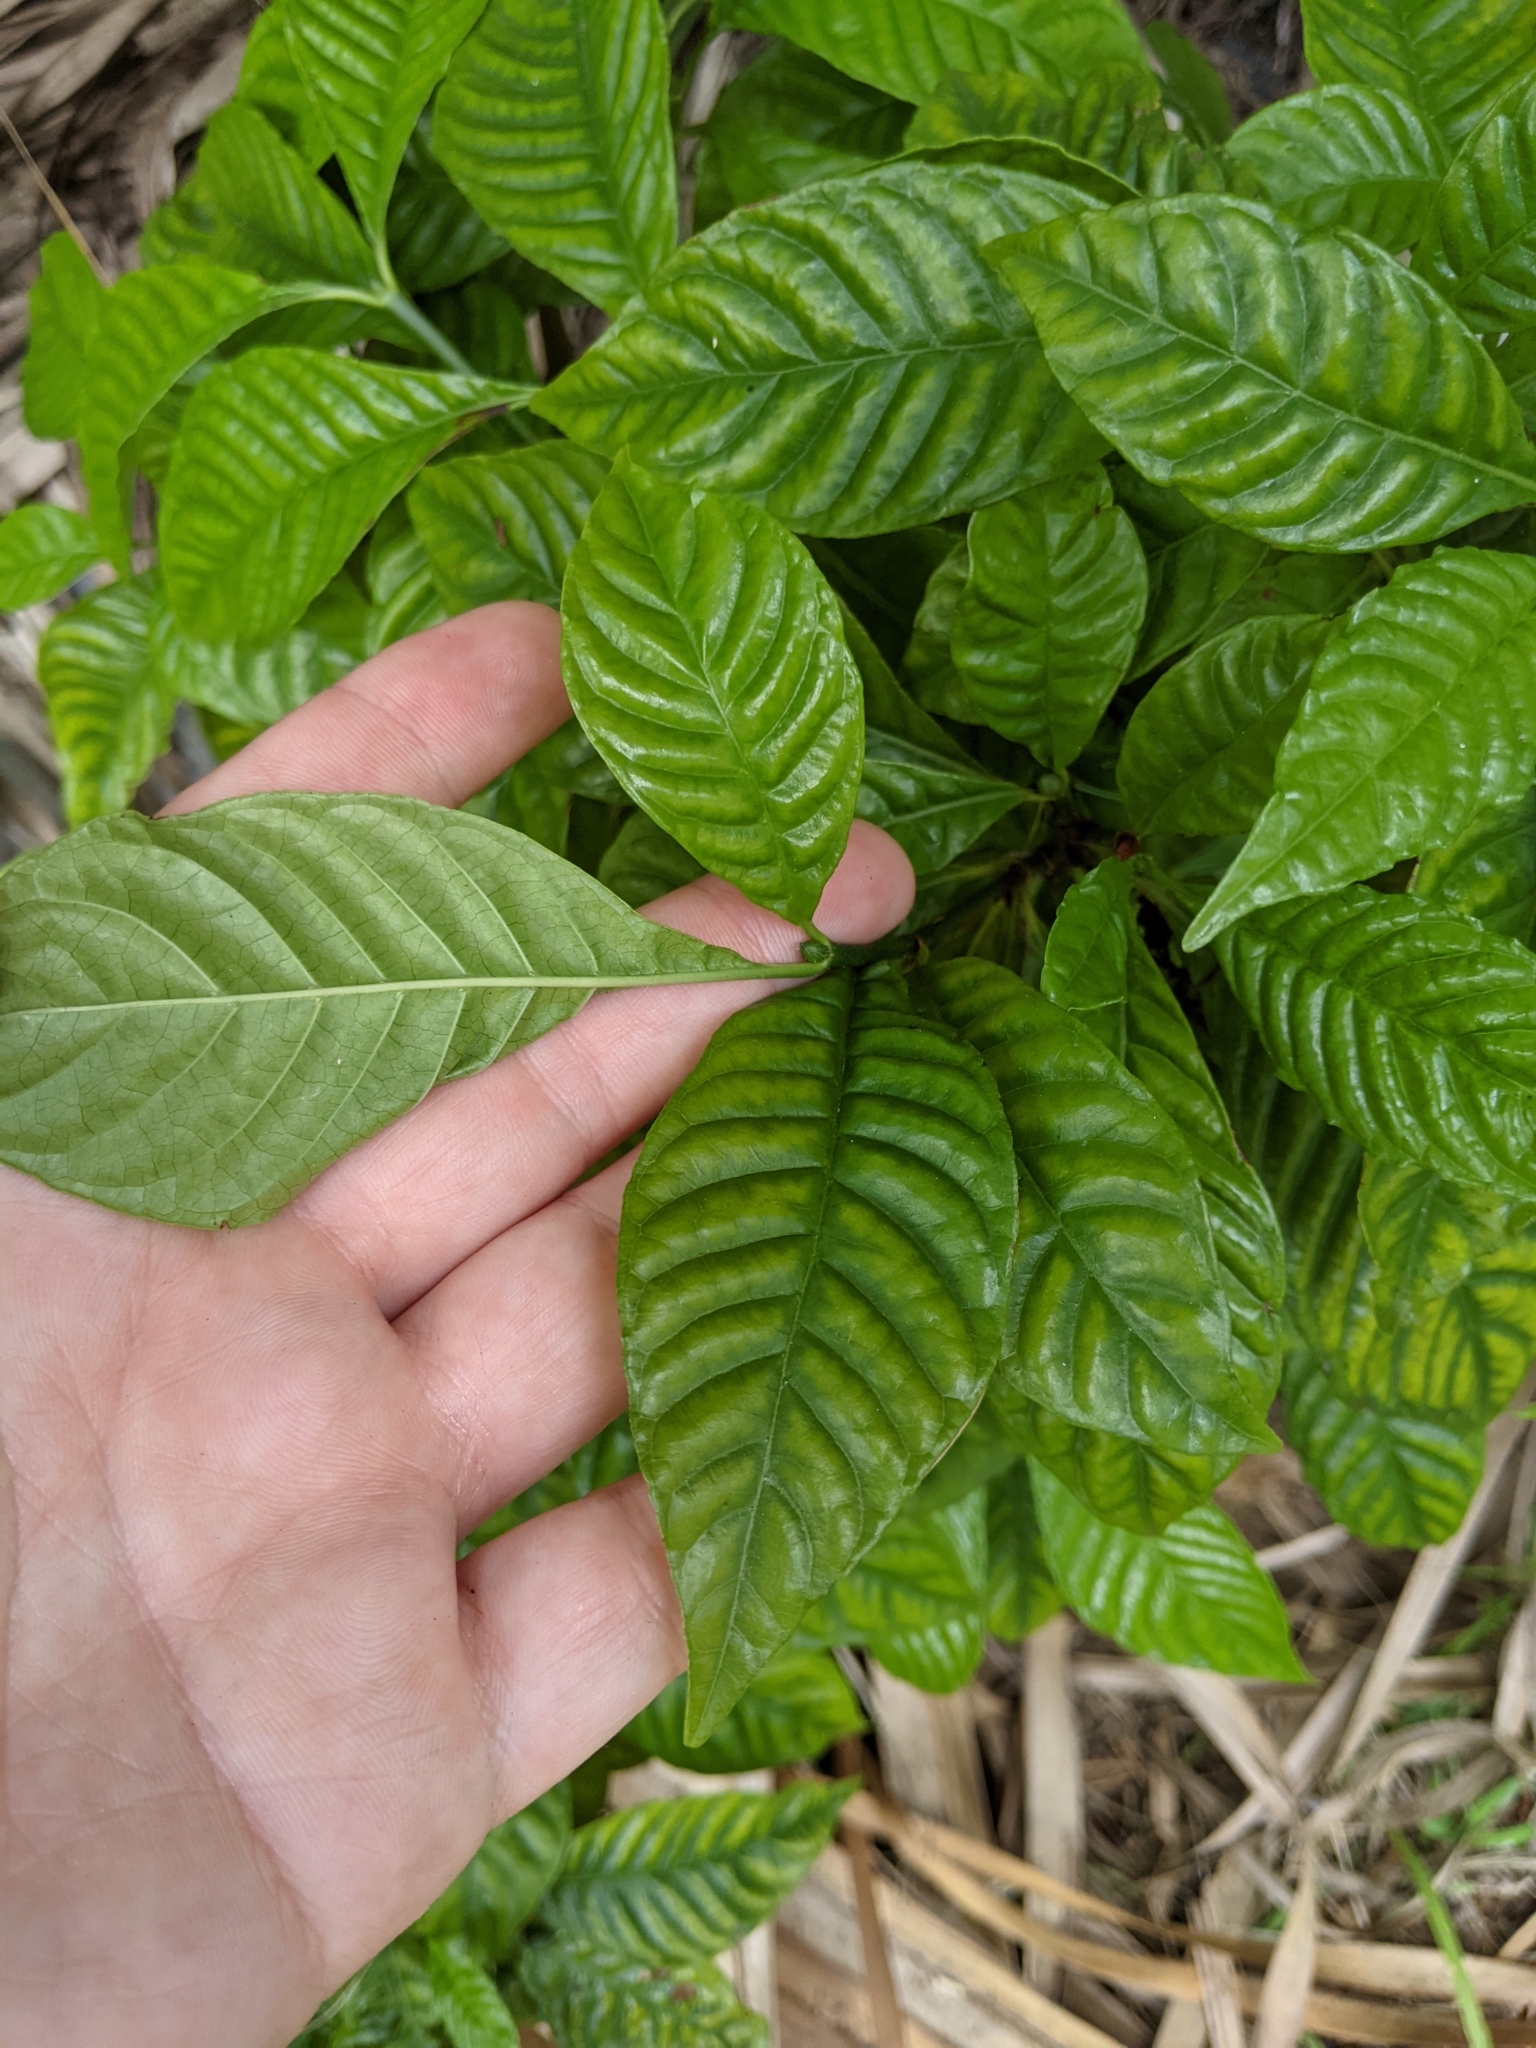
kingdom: Plantae
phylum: Tracheophyta
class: Magnoliopsida
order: Gentianales
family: Rubiaceae
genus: Psychotria
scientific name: Psychotria nervosa
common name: Bastard cankerberry
